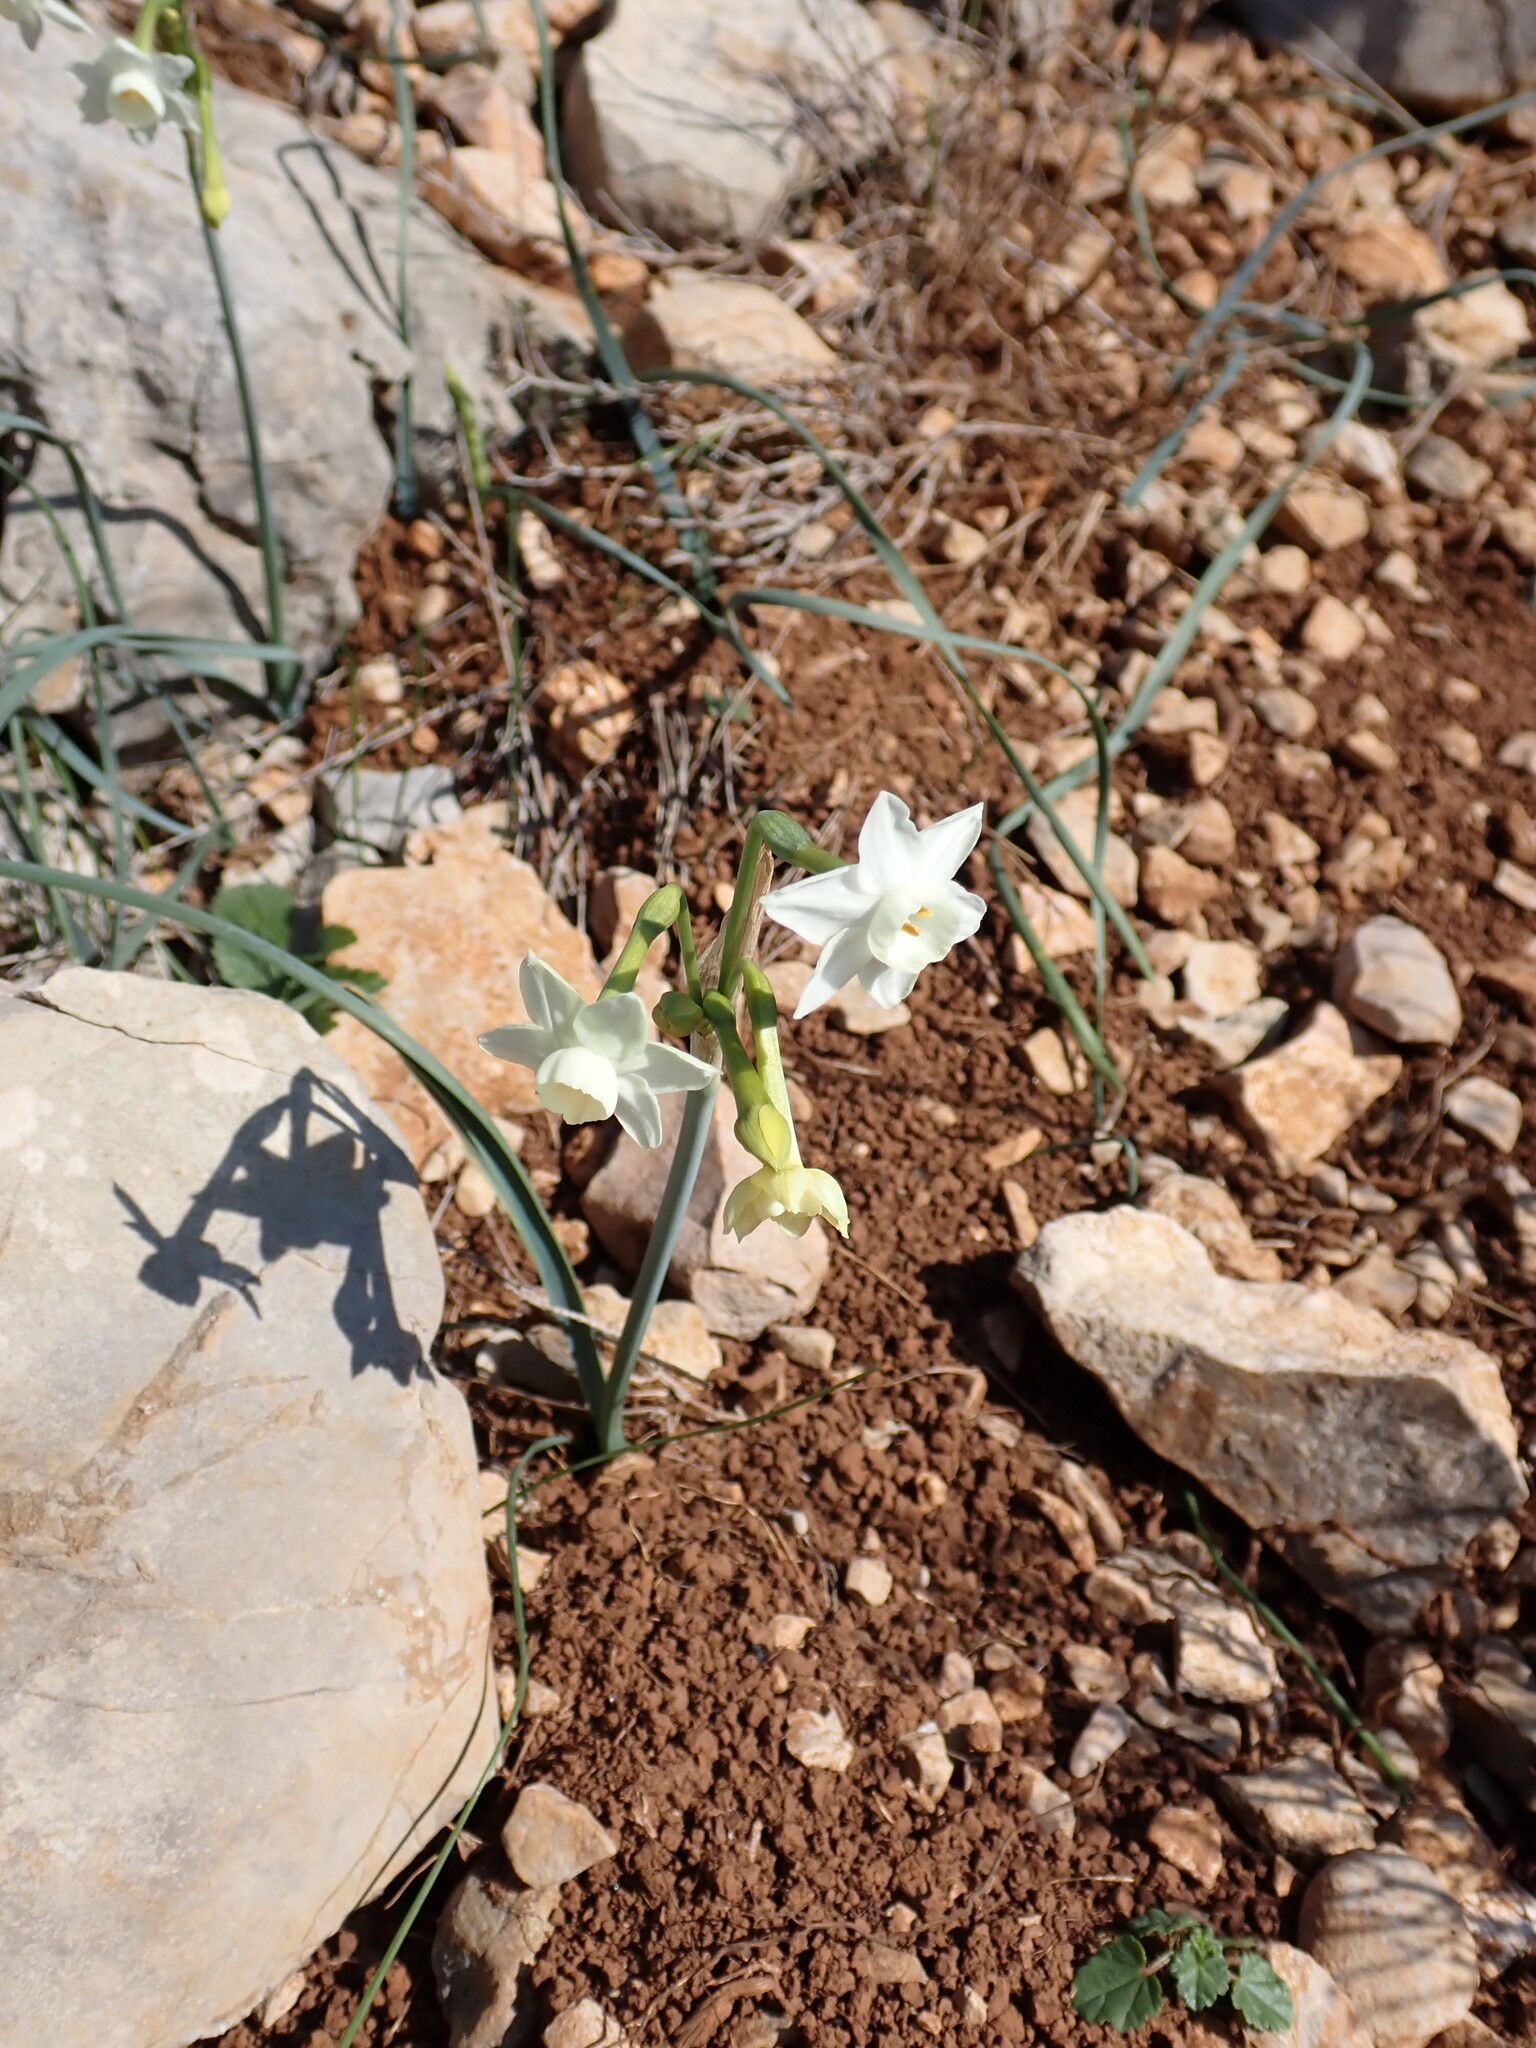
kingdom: Plantae
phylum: Tracheophyta
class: Liliopsida
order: Asparagales
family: Amaryllidaceae
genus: Narcissus
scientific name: Narcissus dubius
